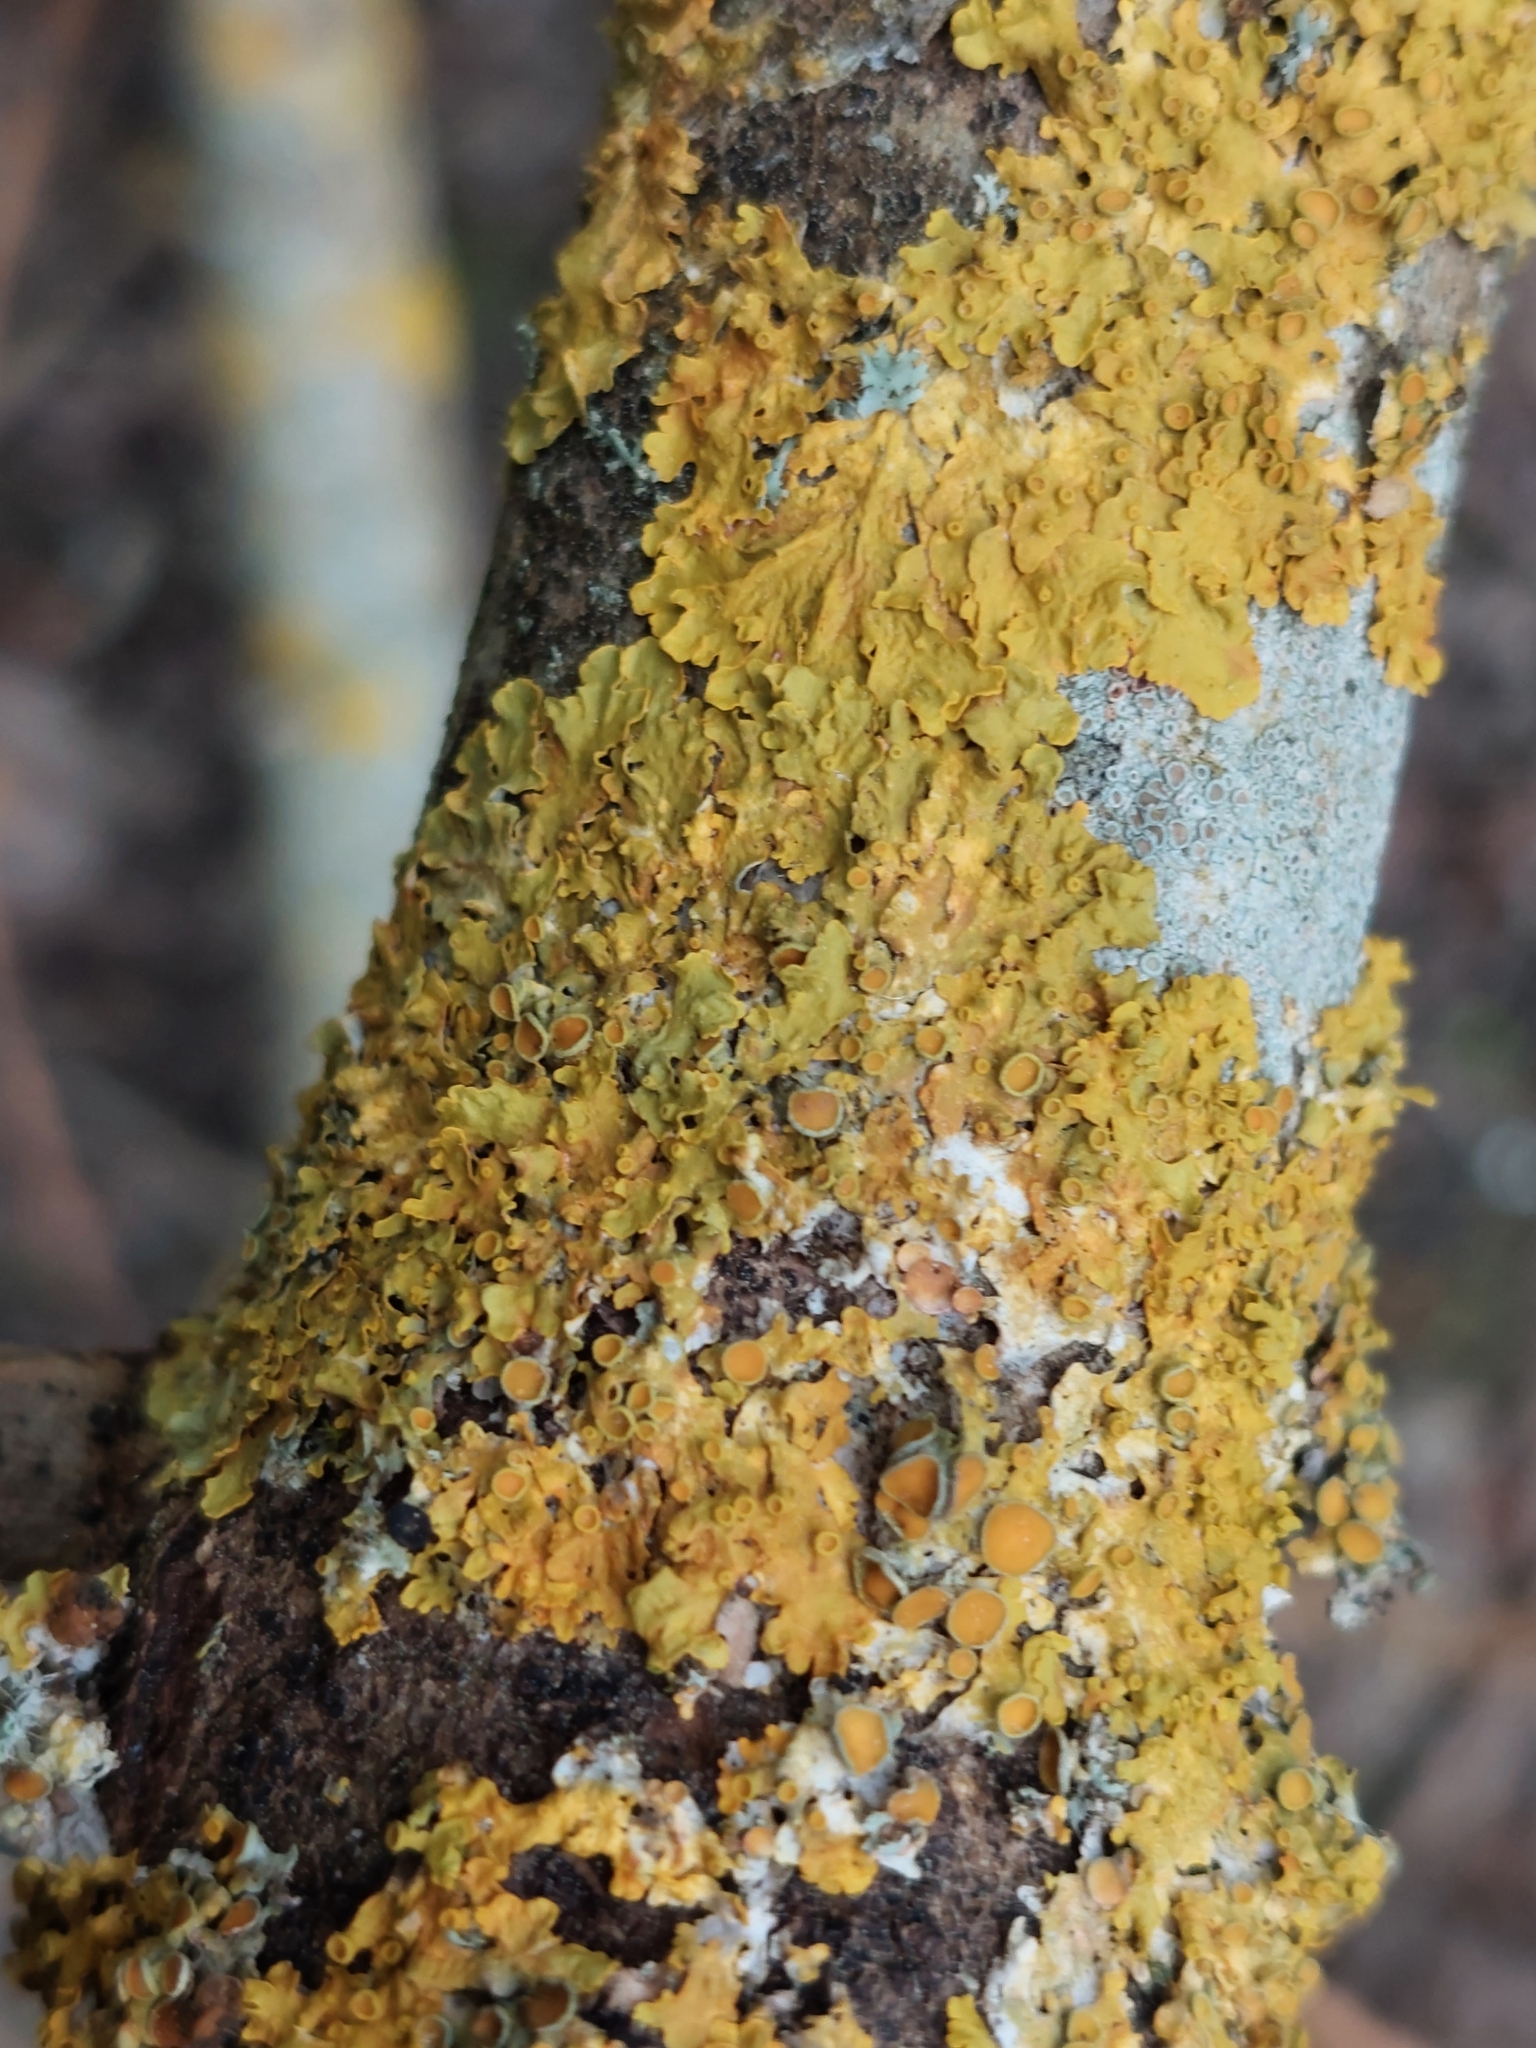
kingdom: Fungi
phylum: Ascomycota
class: Lecanoromycetes
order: Teloschistales
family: Teloschistaceae
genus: Xanthoria
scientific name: Xanthoria parietina
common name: Common orange lichen
